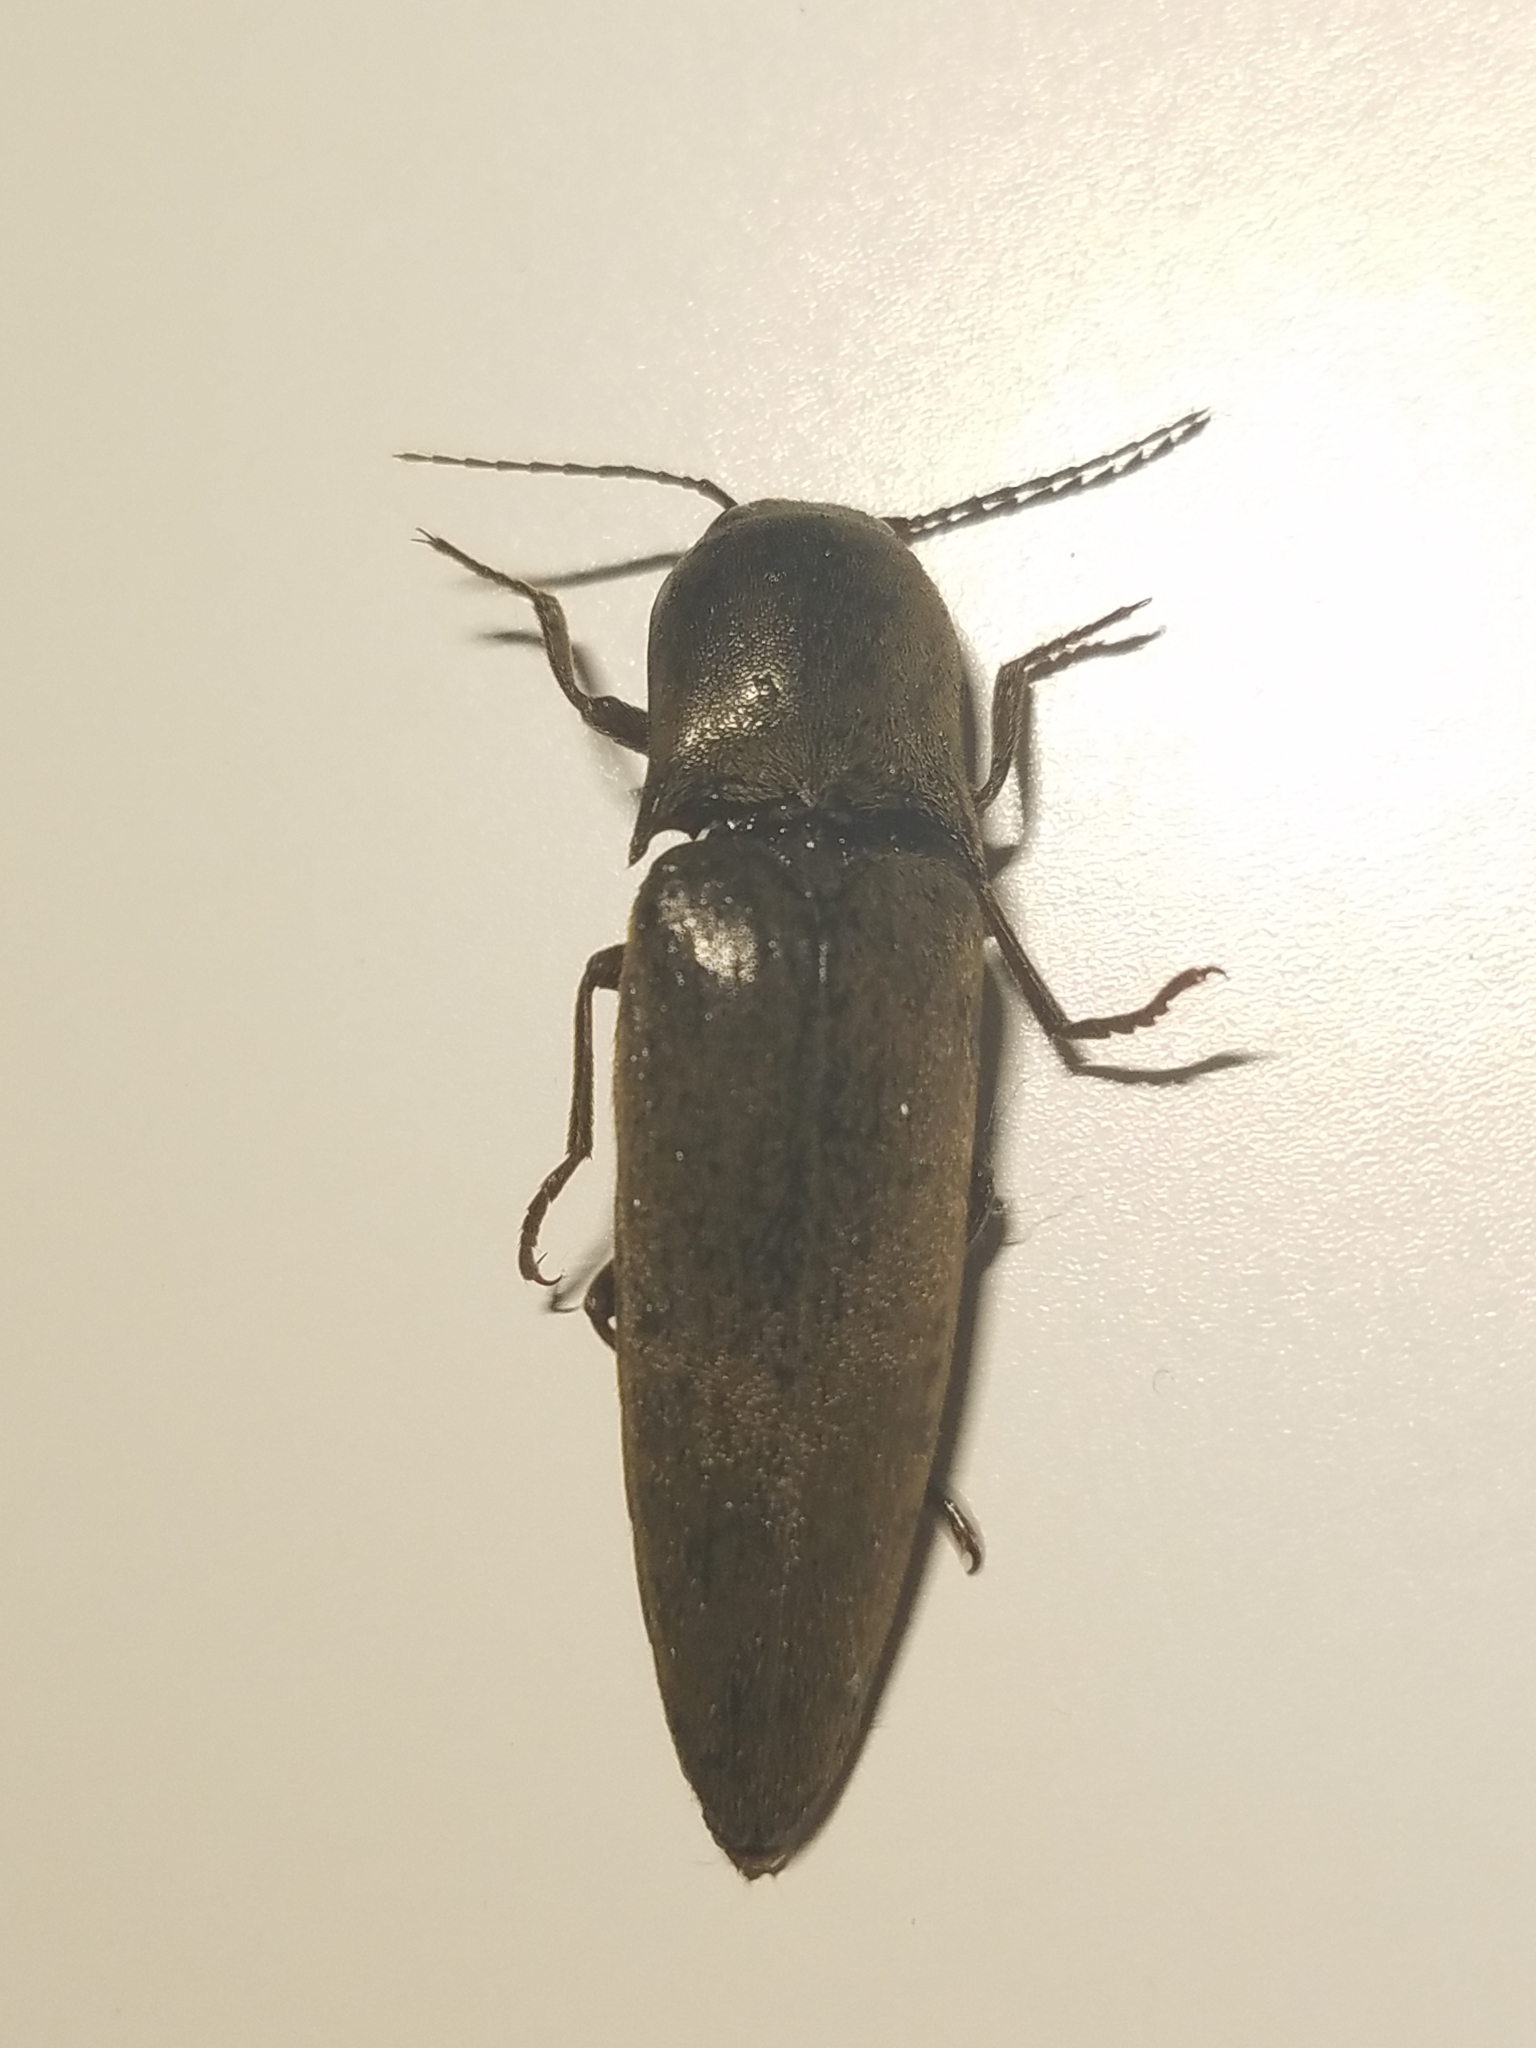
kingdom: Animalia
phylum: Arthropoda
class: Insecta
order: Coleoptera
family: Elateridae
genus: Orthostethus
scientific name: Orthostethus infuscatus
